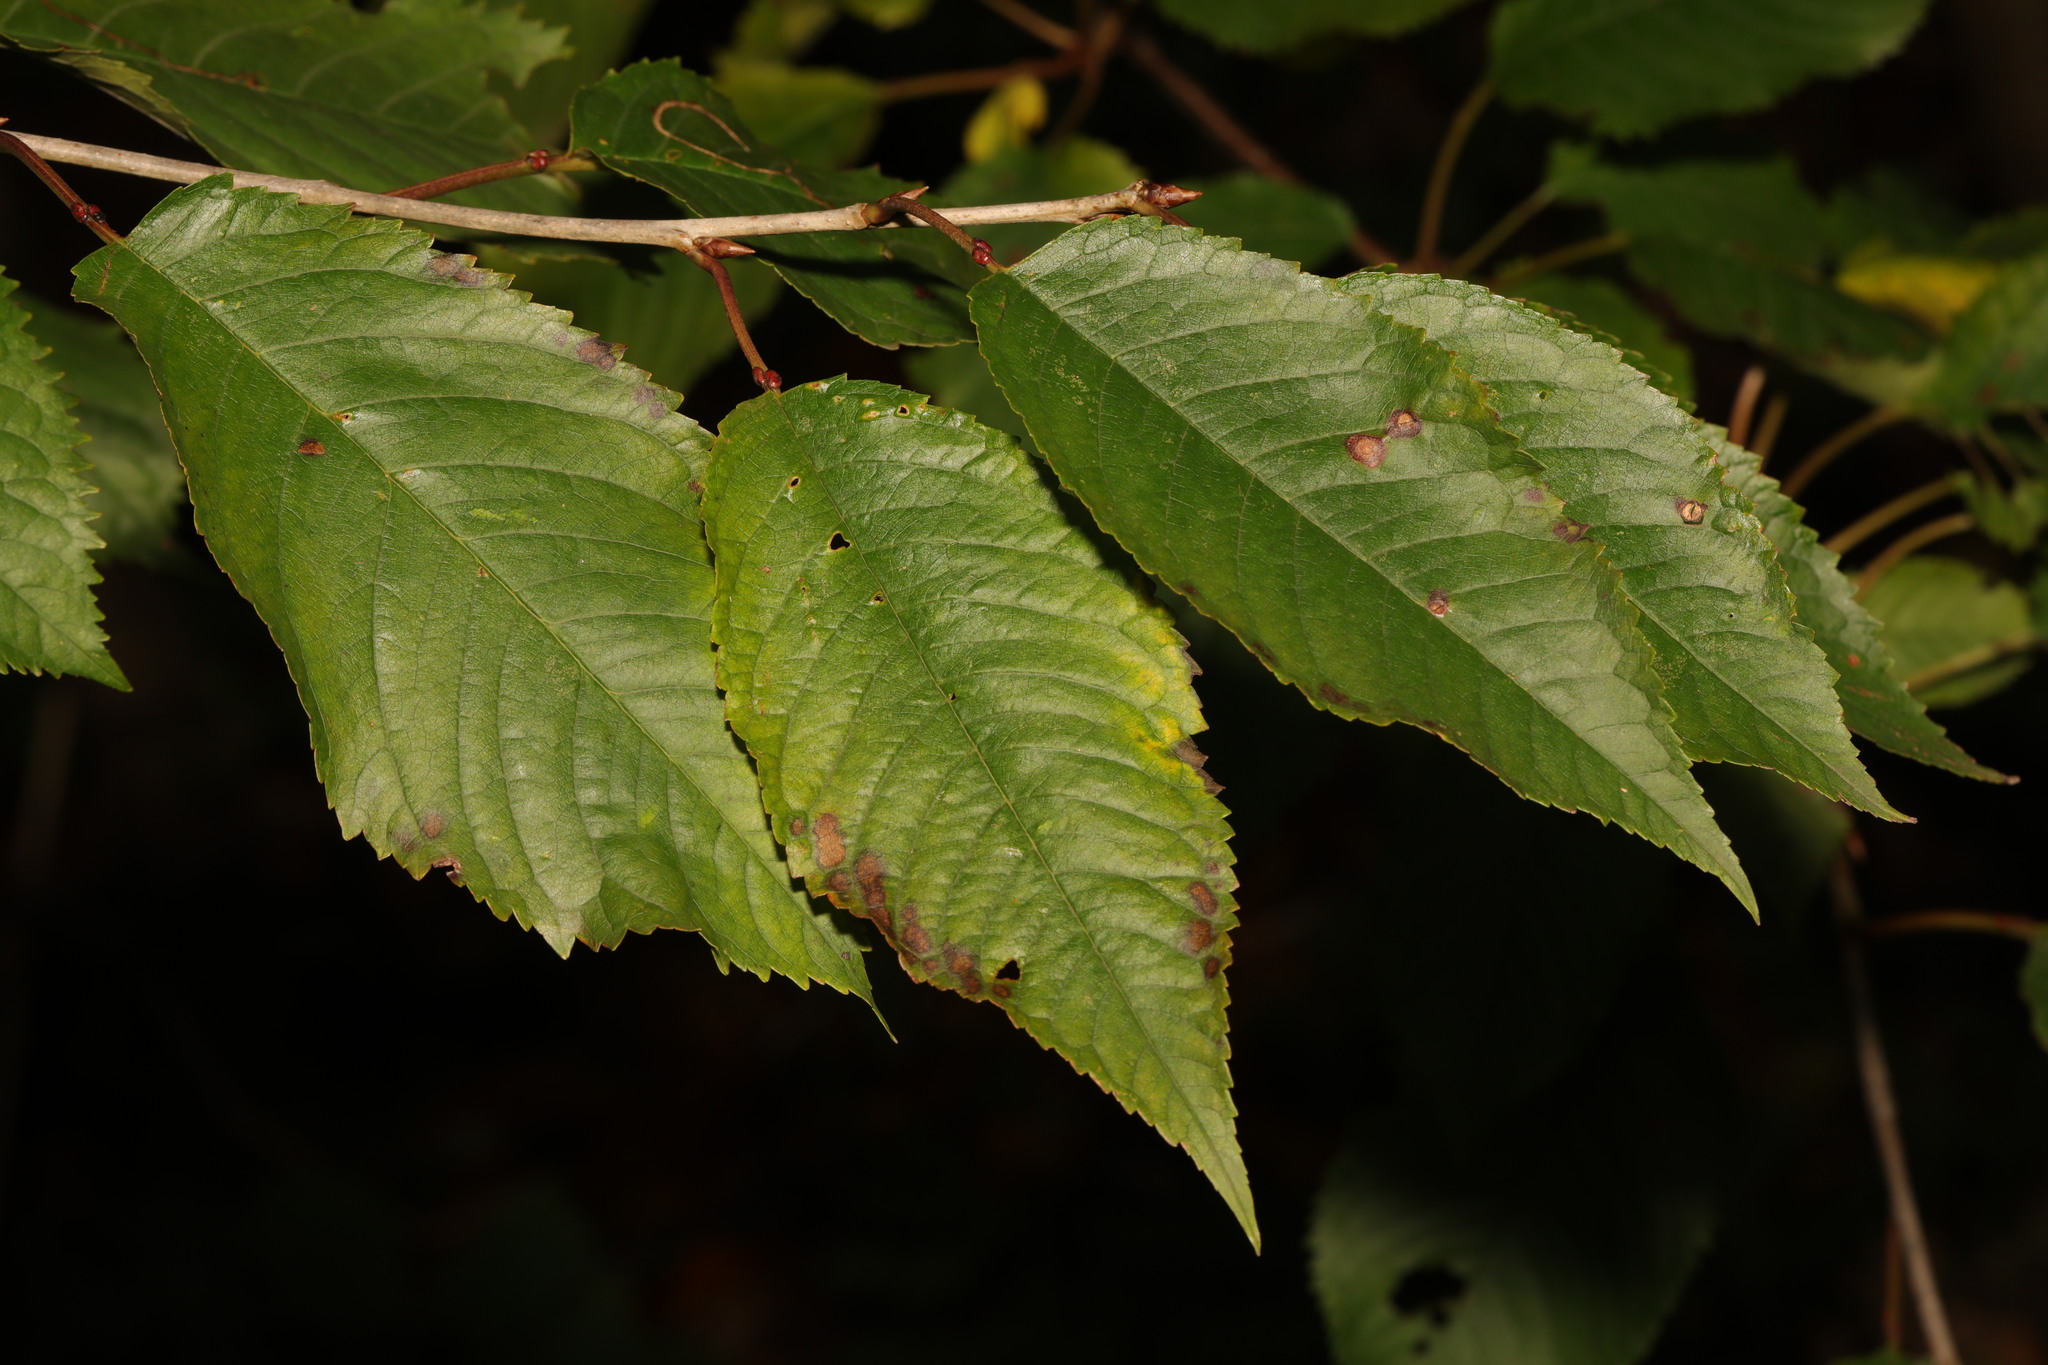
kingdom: Plantae
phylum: Tracheophyta
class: Magnoliopsida
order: Rosales
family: Rosaceae
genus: Prunus
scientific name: Prunus avium
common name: Sweet cherry
